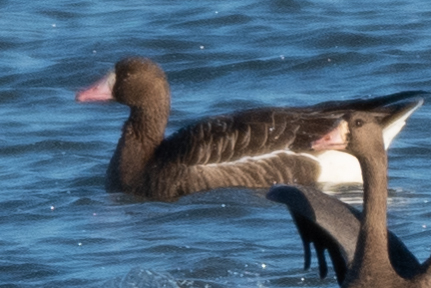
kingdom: Animalia
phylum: Chordata
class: Aves
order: Anseriformes
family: Anatidae
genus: Anser
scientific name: Anser albifrons
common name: Greater white-fronted goose
